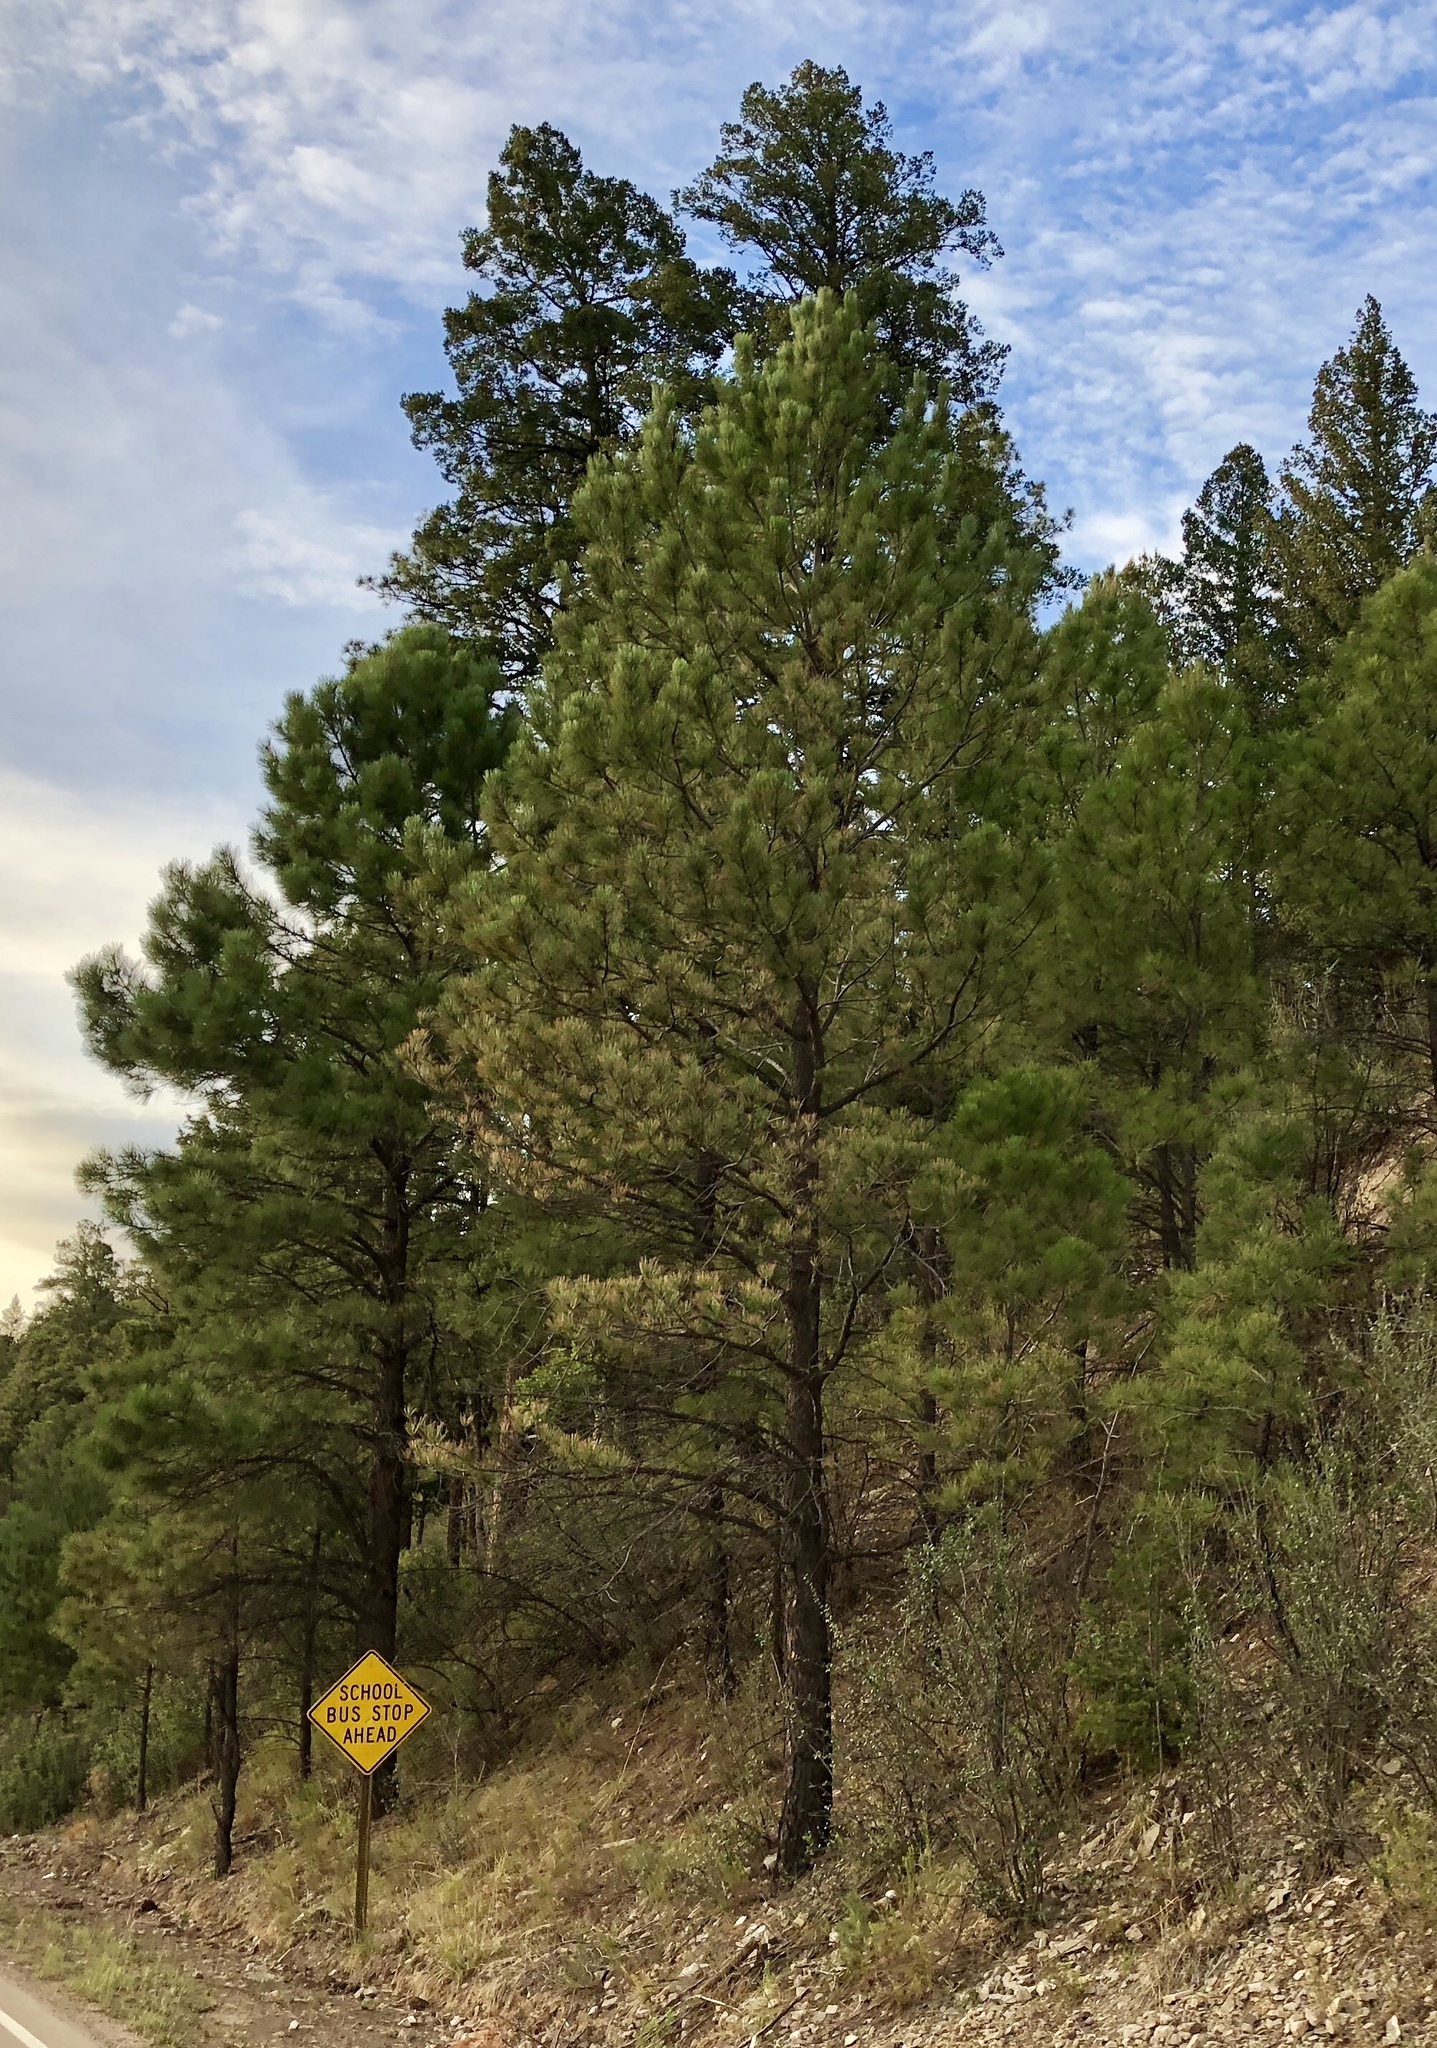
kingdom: Plantae
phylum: Tracheophyta
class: Pinopsida
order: Pinales
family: Pinaceae
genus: Pinus
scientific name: Pinus ponderosa
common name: Western yellow-pine
